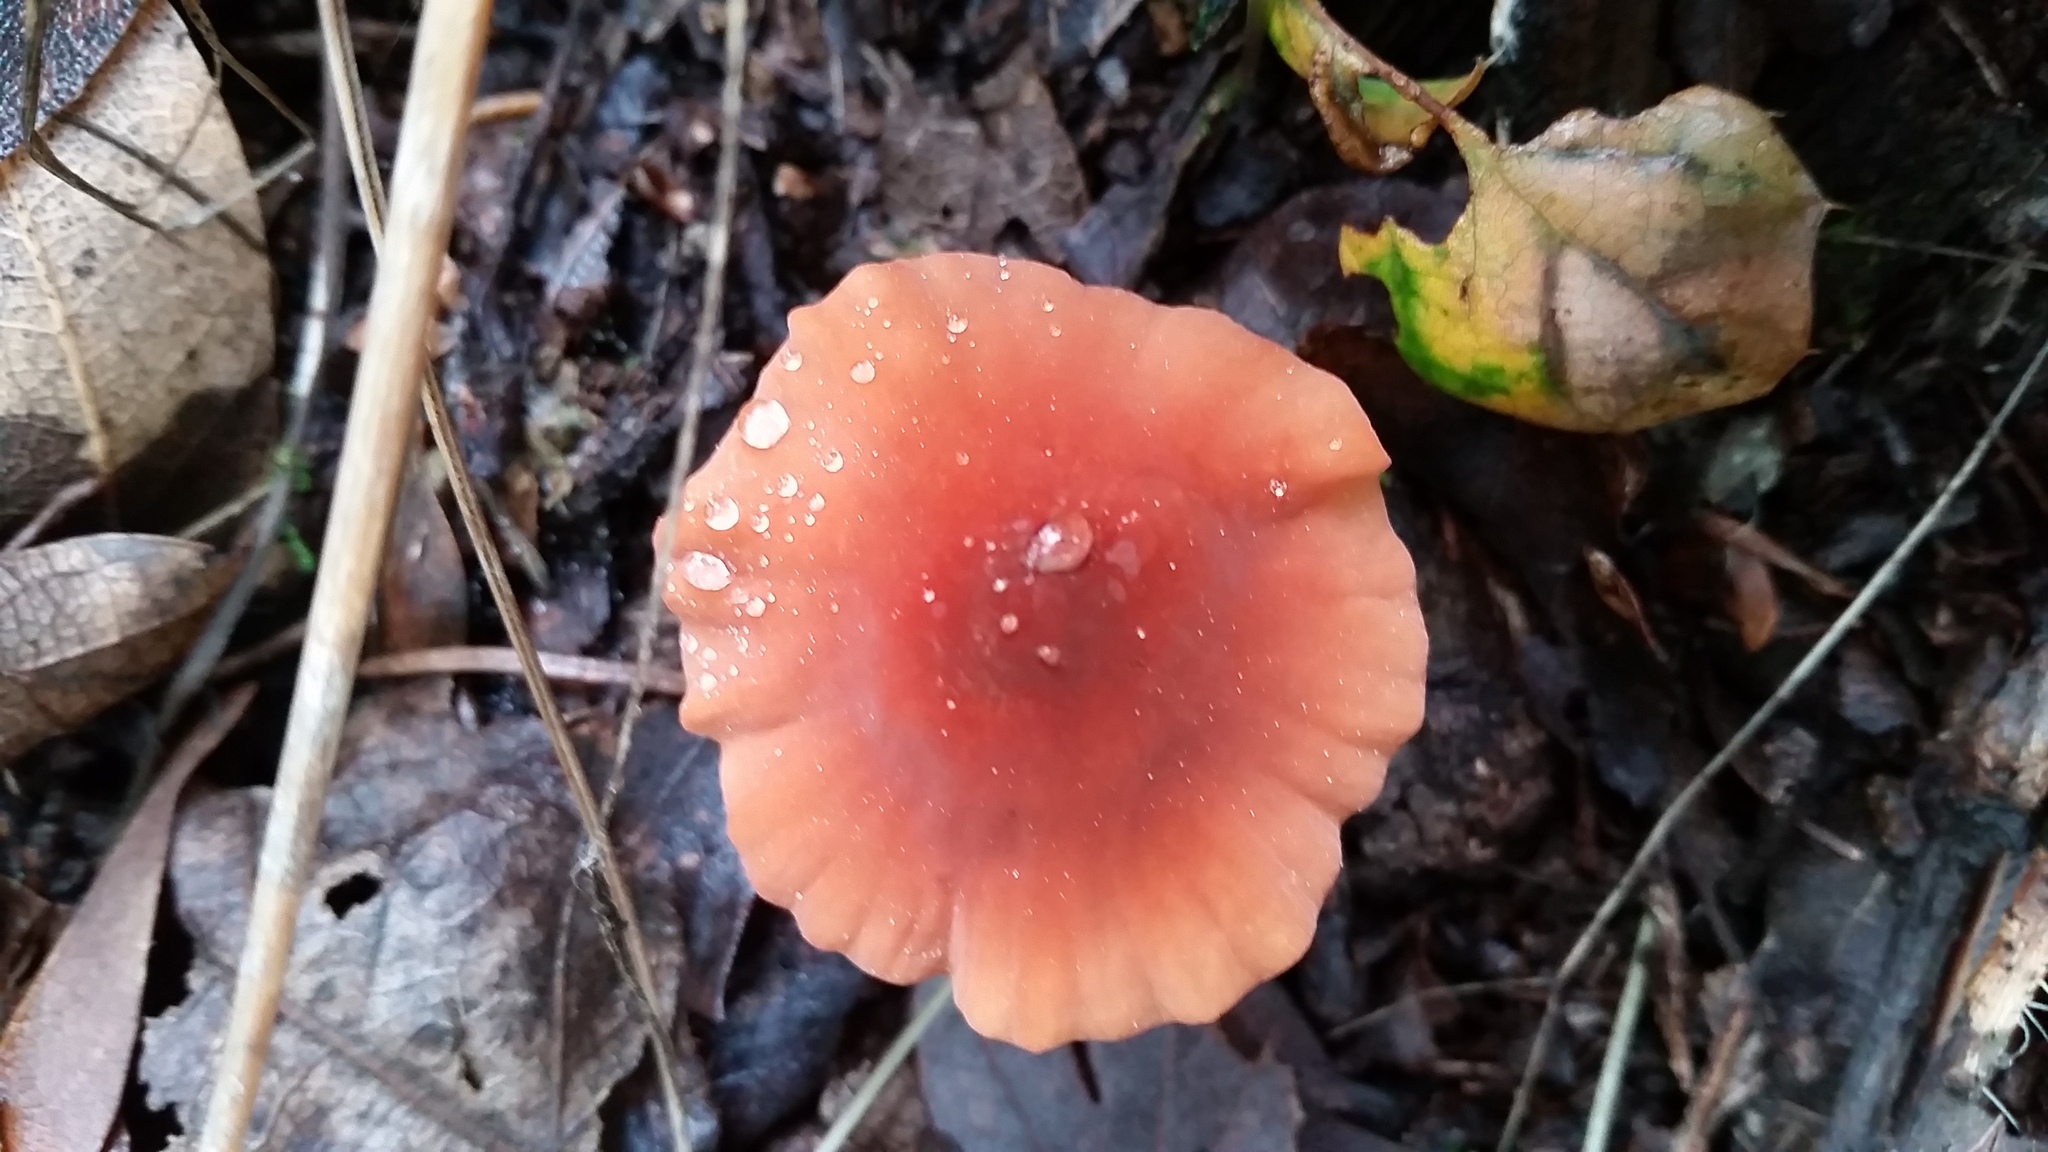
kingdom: Fungi
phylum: Basidiomycota
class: Agaricomycetes
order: Agaricales
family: Marasmiaceae
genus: Marasmius
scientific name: Marasmius plicatulus
